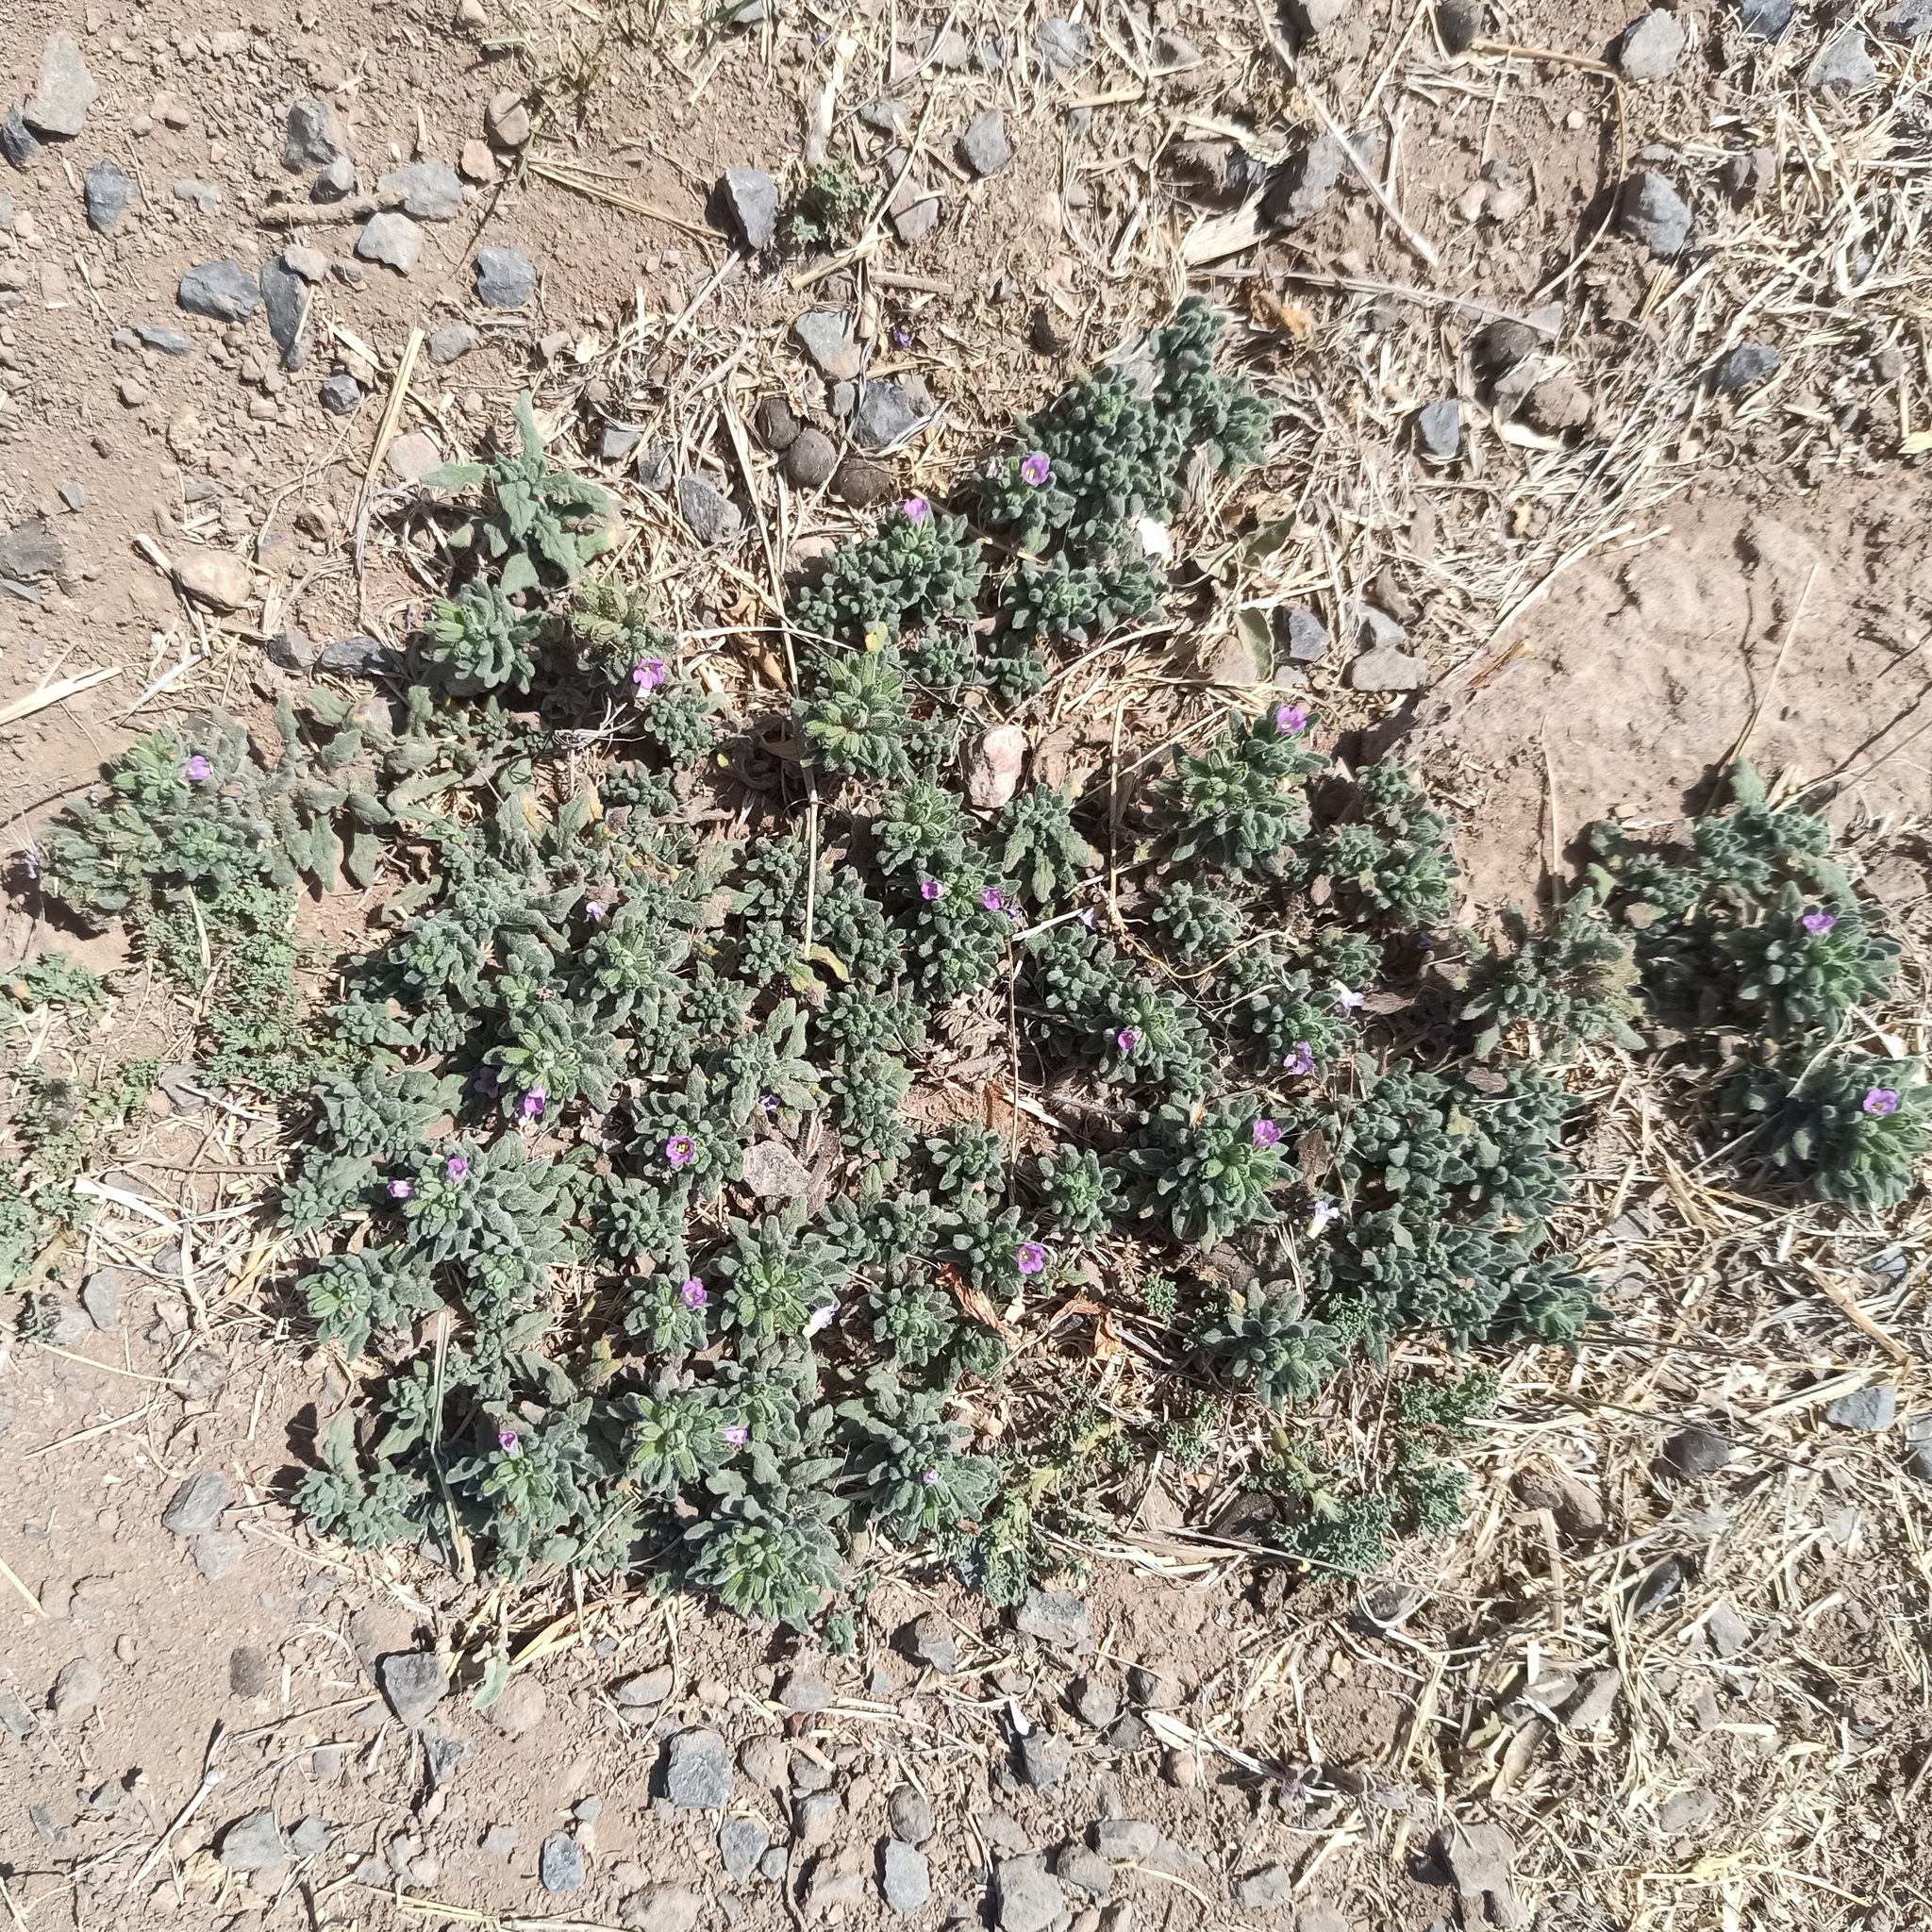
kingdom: Plantae
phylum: Tracheophyta
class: Magnoliopsida
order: Boraginales
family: Namaceae
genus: Nama
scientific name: Nama hispida
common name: Bristly nama
